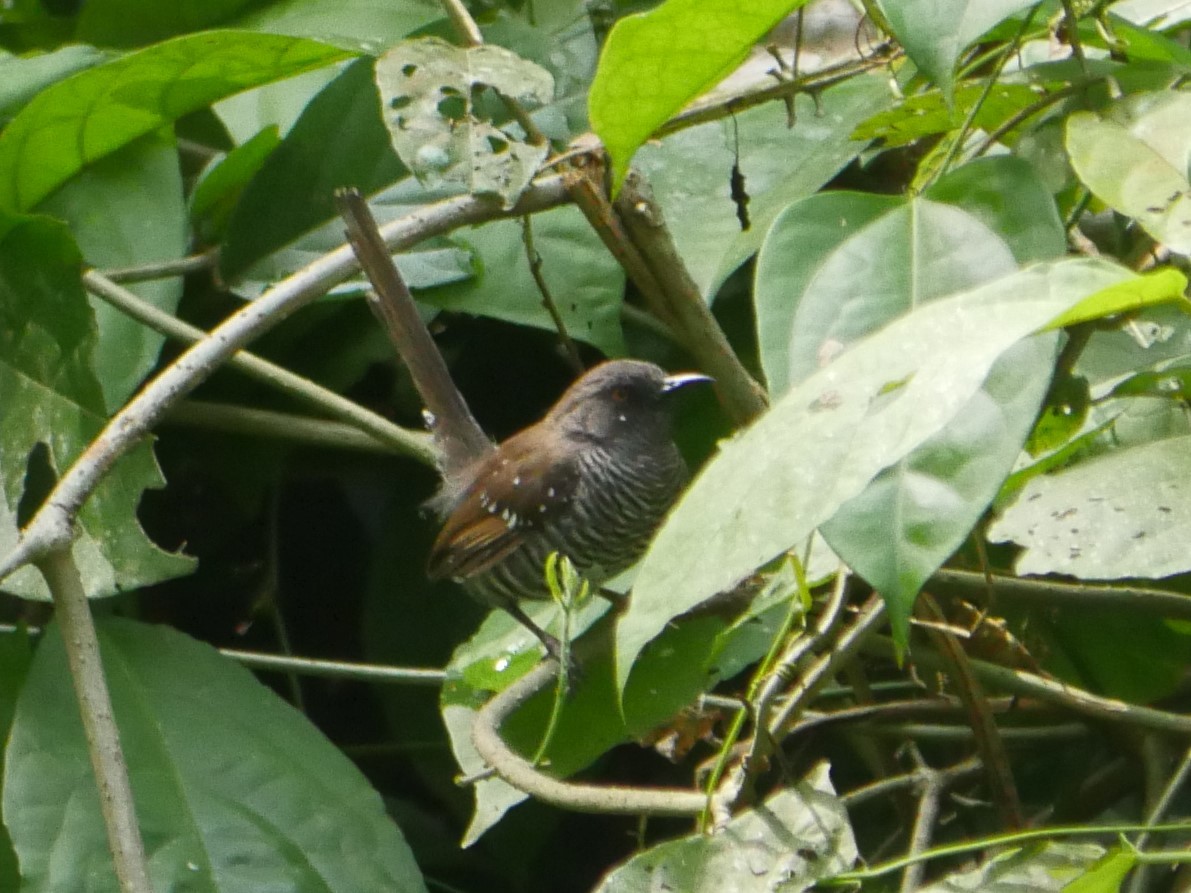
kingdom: Animalia
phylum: Chordata
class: Aves
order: Passeriformes
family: Cisticolidae
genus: Prinia
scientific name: Prinia bairdii
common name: Banded prinia
